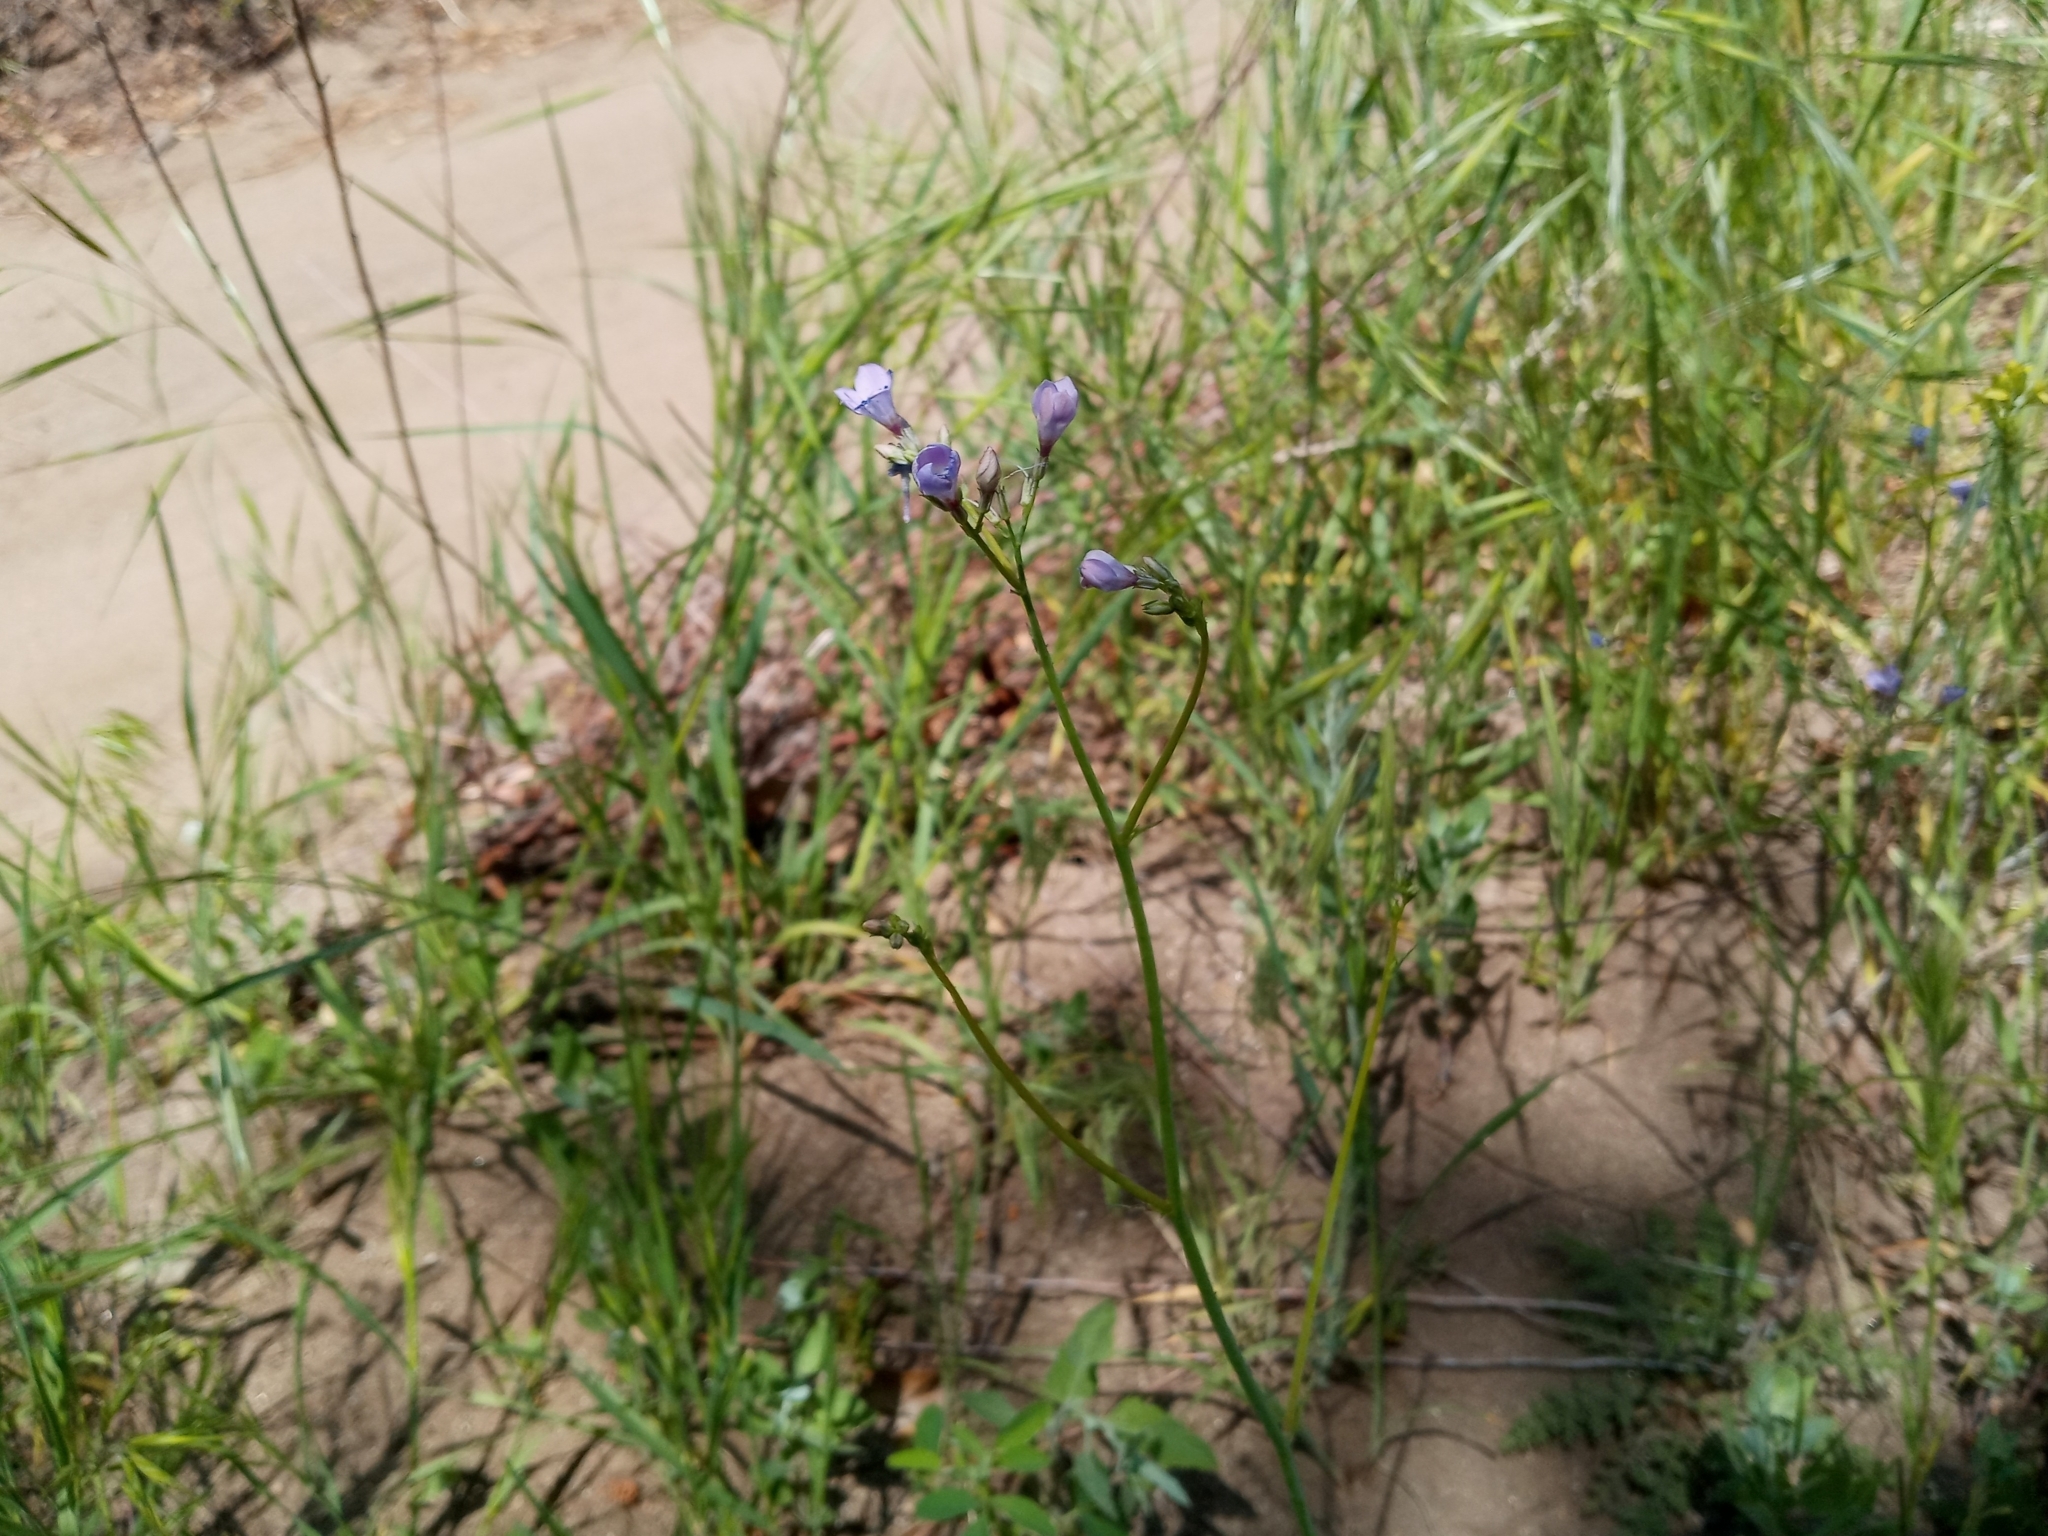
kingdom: Plantae
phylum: Tracheophyta
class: Magnoliopsida
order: Ericales
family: Polemoniaceae
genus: Saltugilia
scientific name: Saltugilia splendens
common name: Grinnell's gilia
